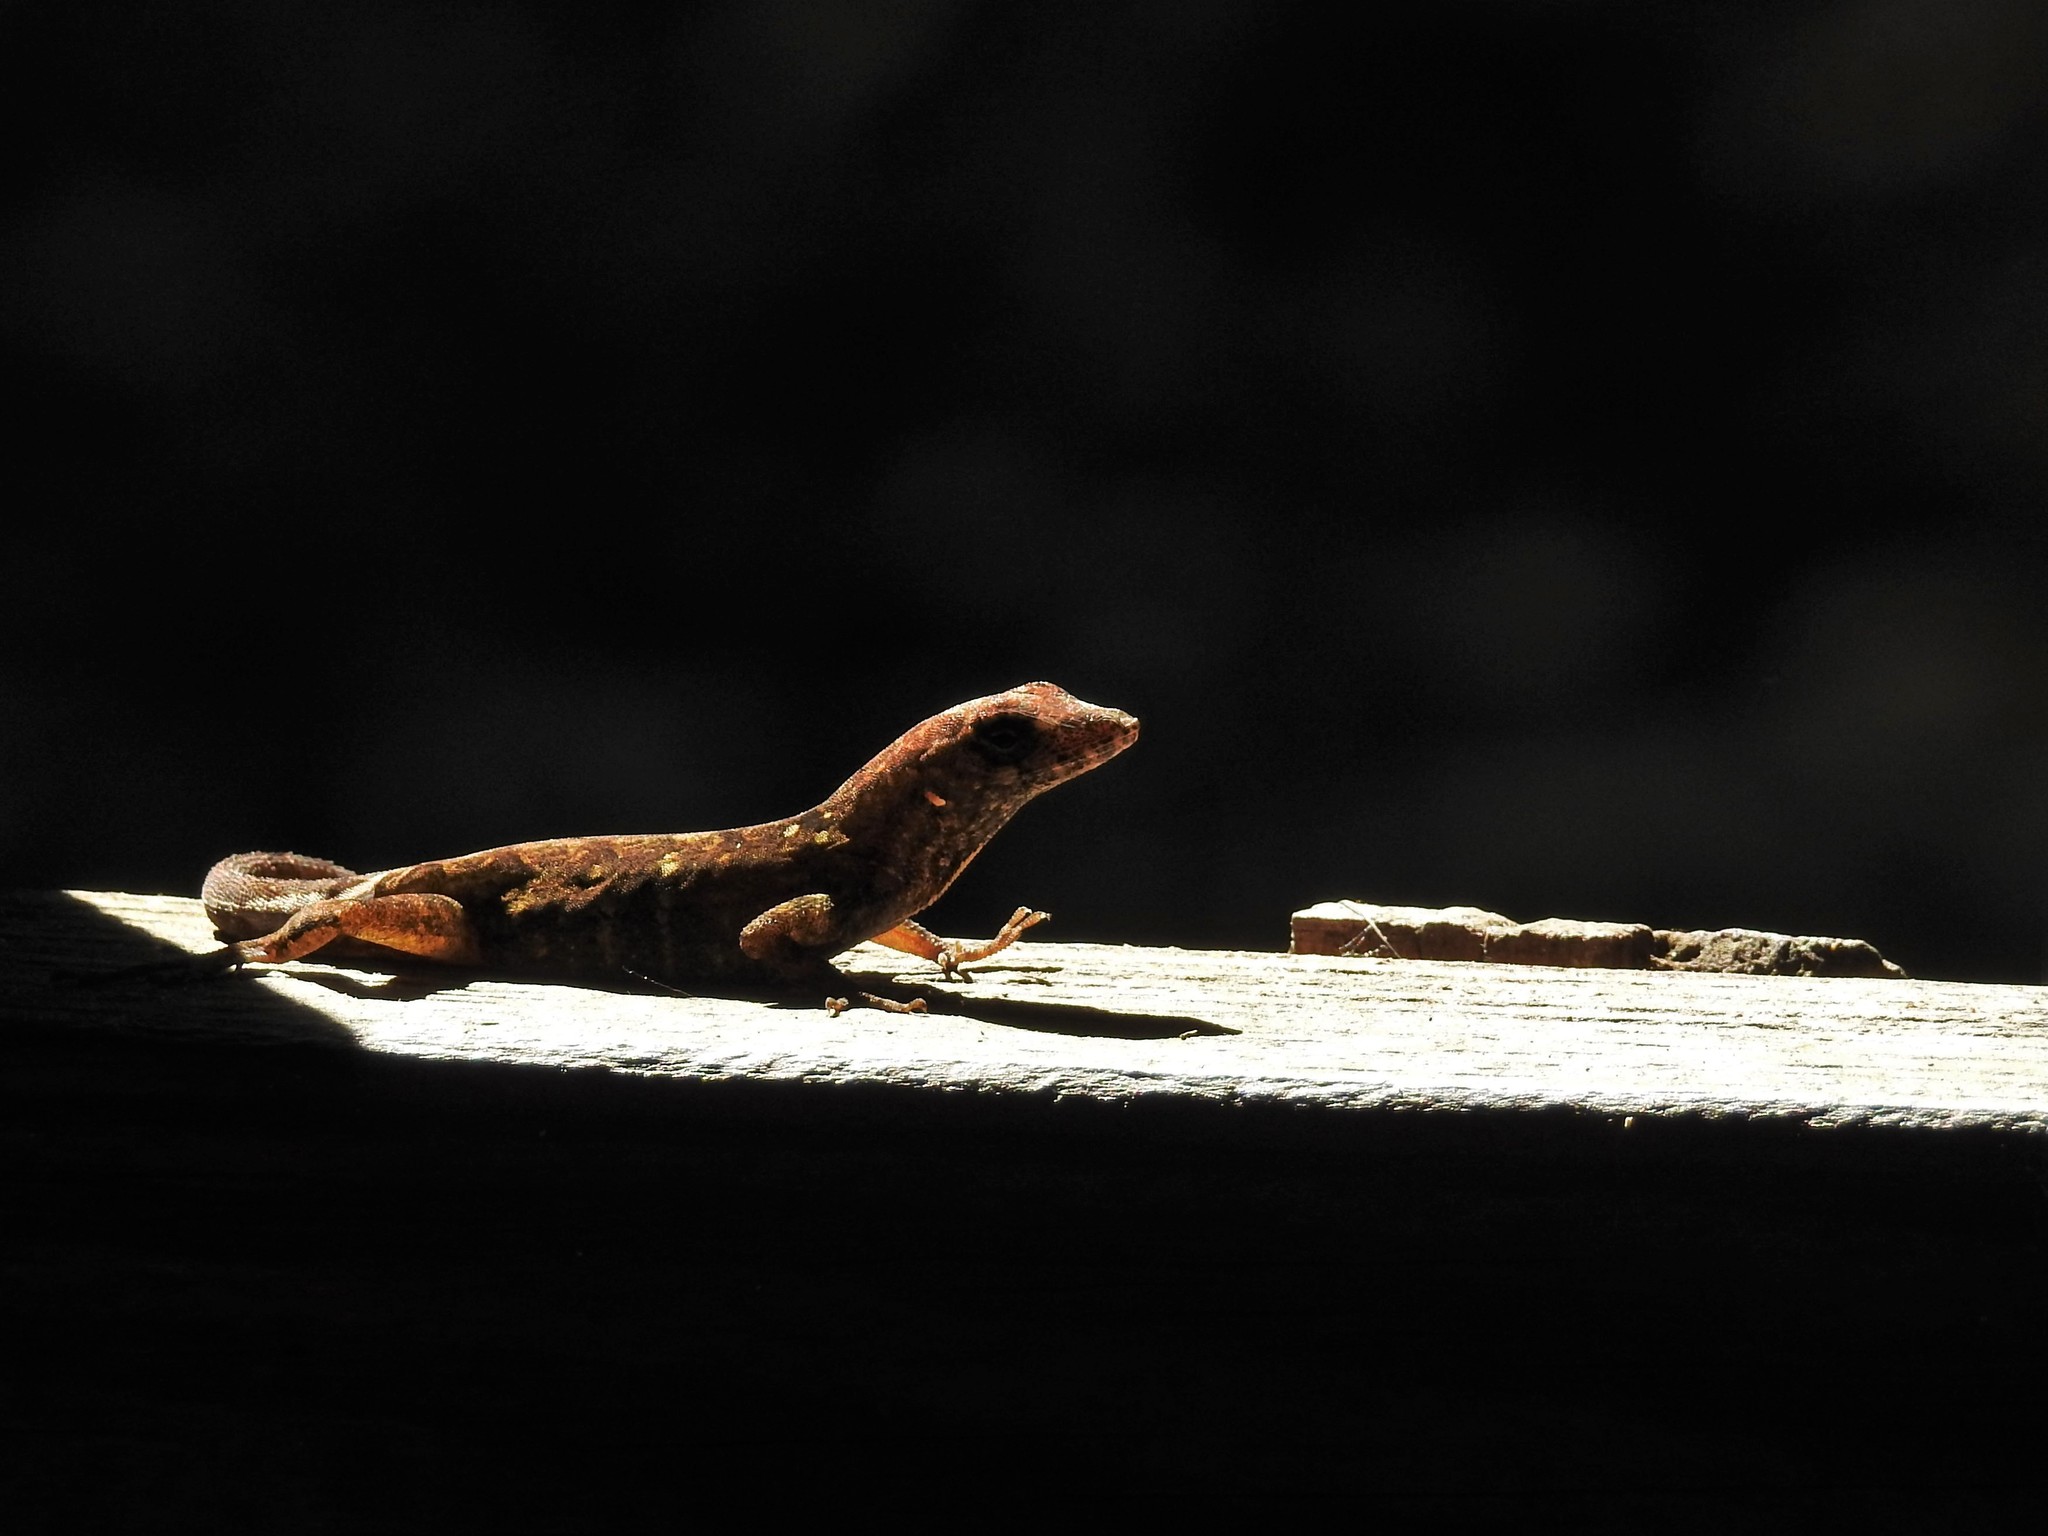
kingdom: Animalia
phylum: Chordata
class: Squamata
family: Dactyloidae
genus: Anolis
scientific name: Anolis sagrei
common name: Brown anole
